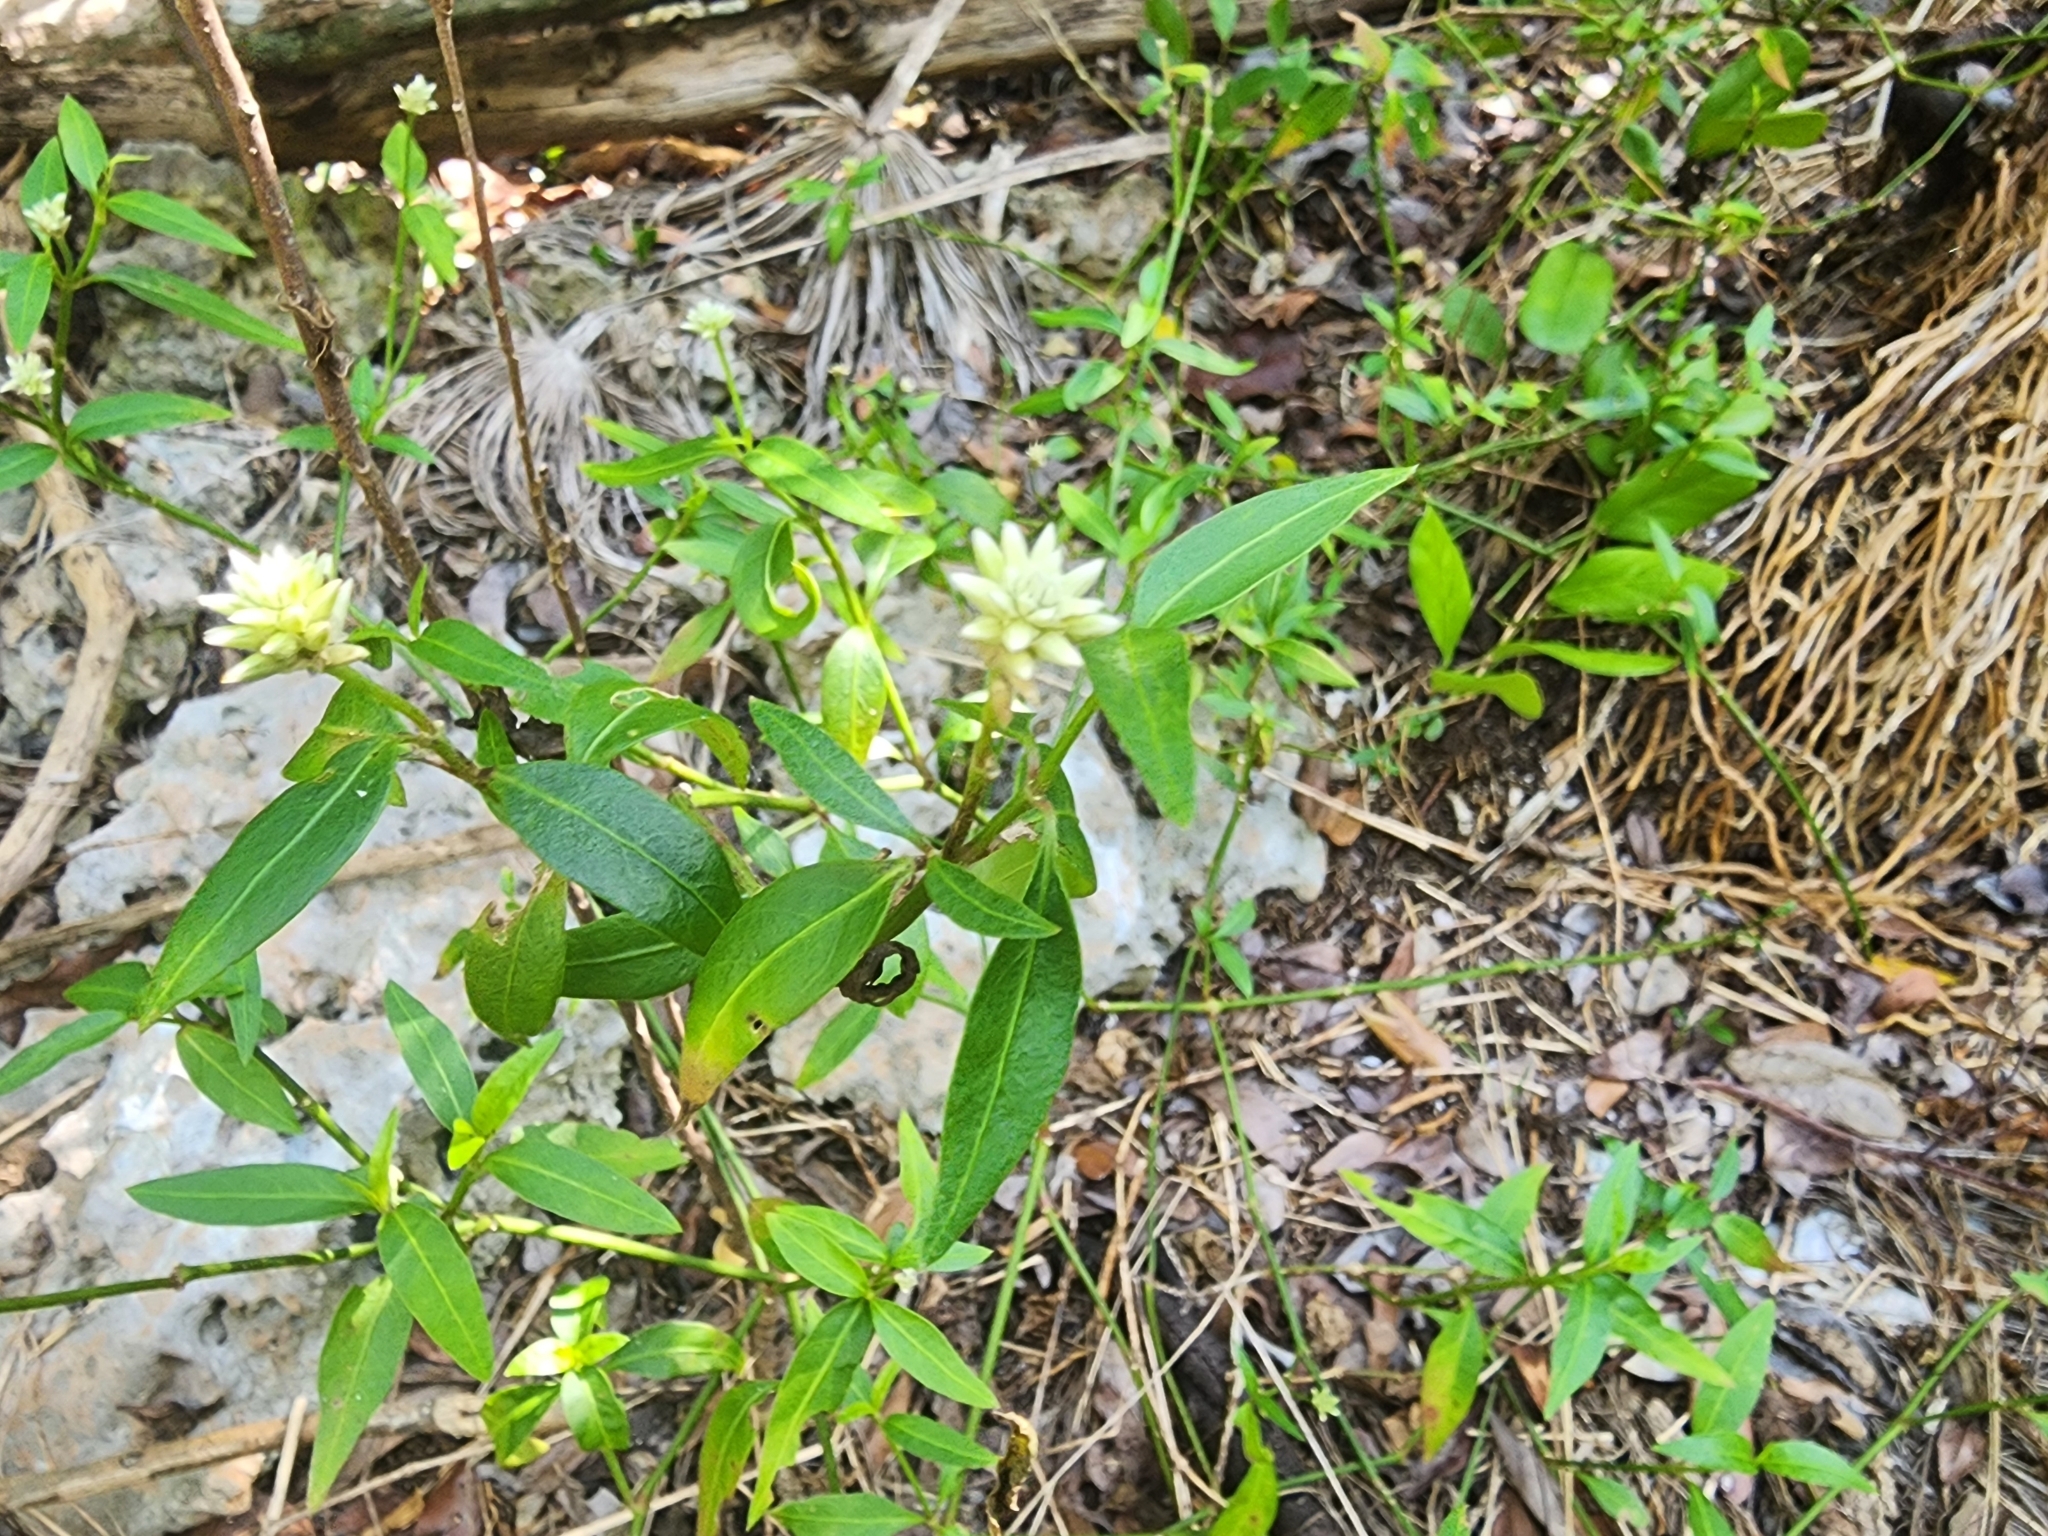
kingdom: Plantae
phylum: Tracheophyta
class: Magnoliopsida
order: Caryophyllales
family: Amaranthaceae
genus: Alternanthera
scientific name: Alternanthera flavescens
